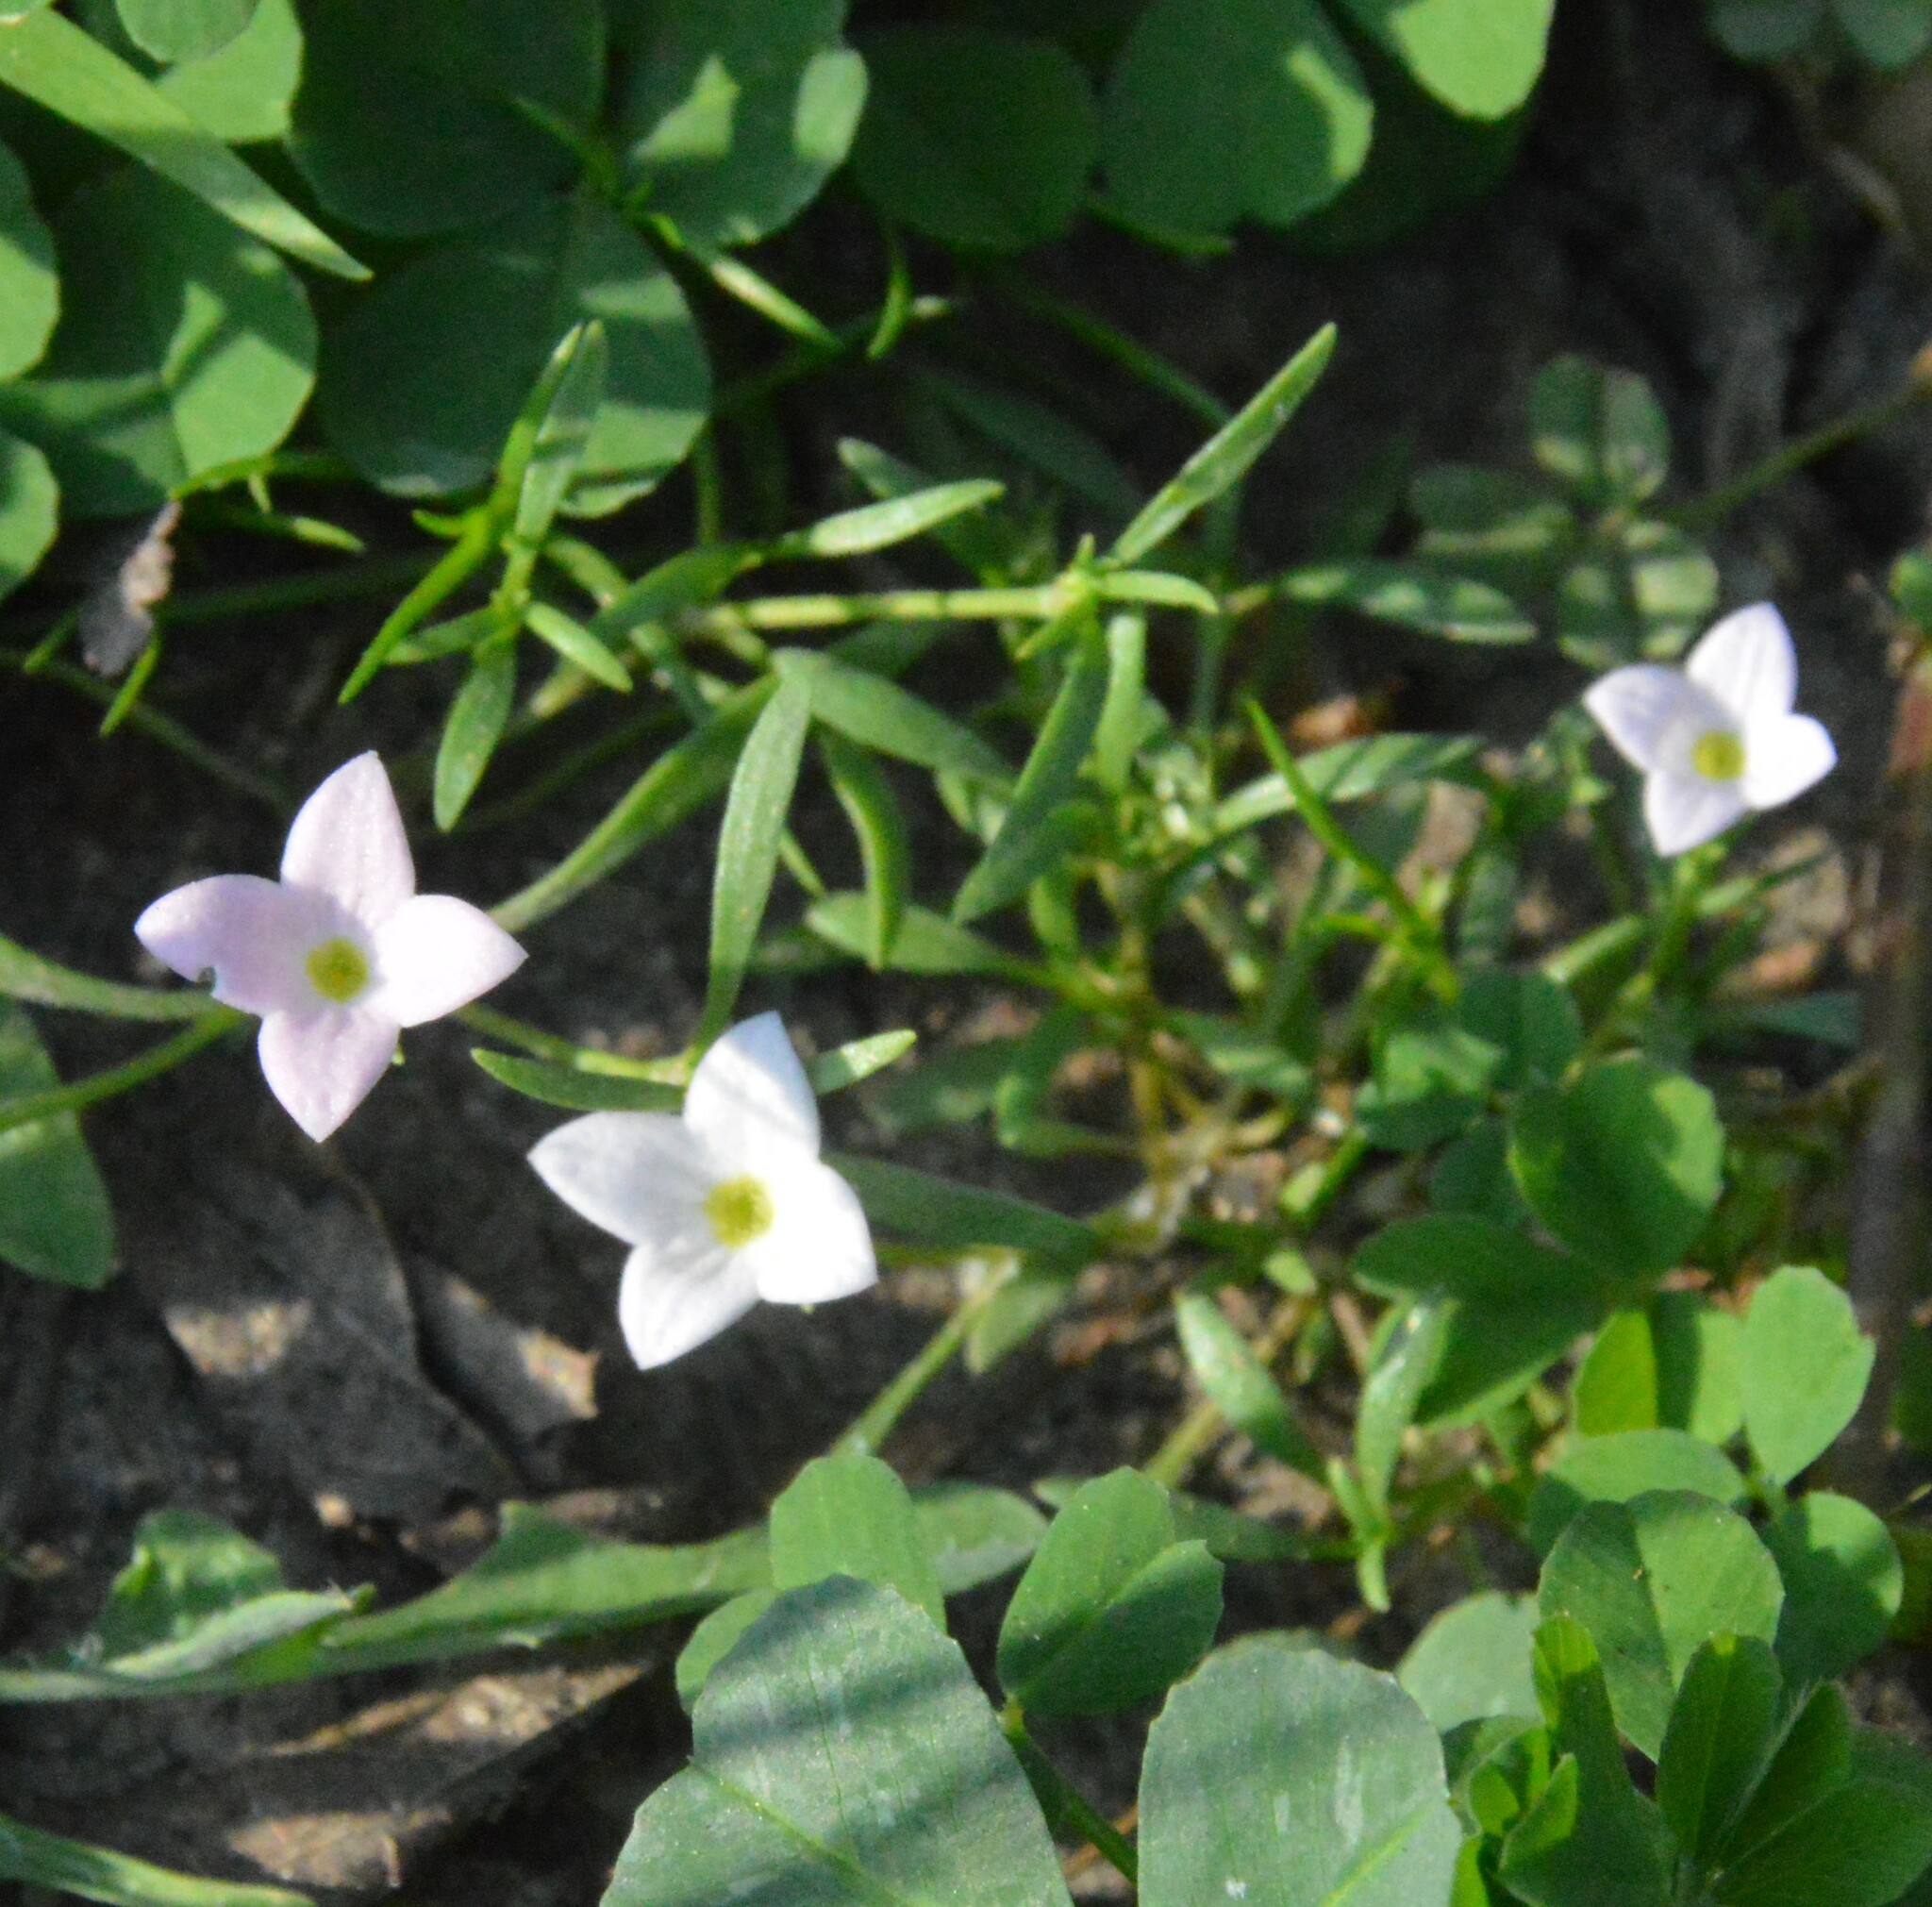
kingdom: Plantae
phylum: Tracheophyta
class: Magnoliopsida
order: Gentianales
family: Rubiaceae
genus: Houstonia
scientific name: Houstonia rosea
